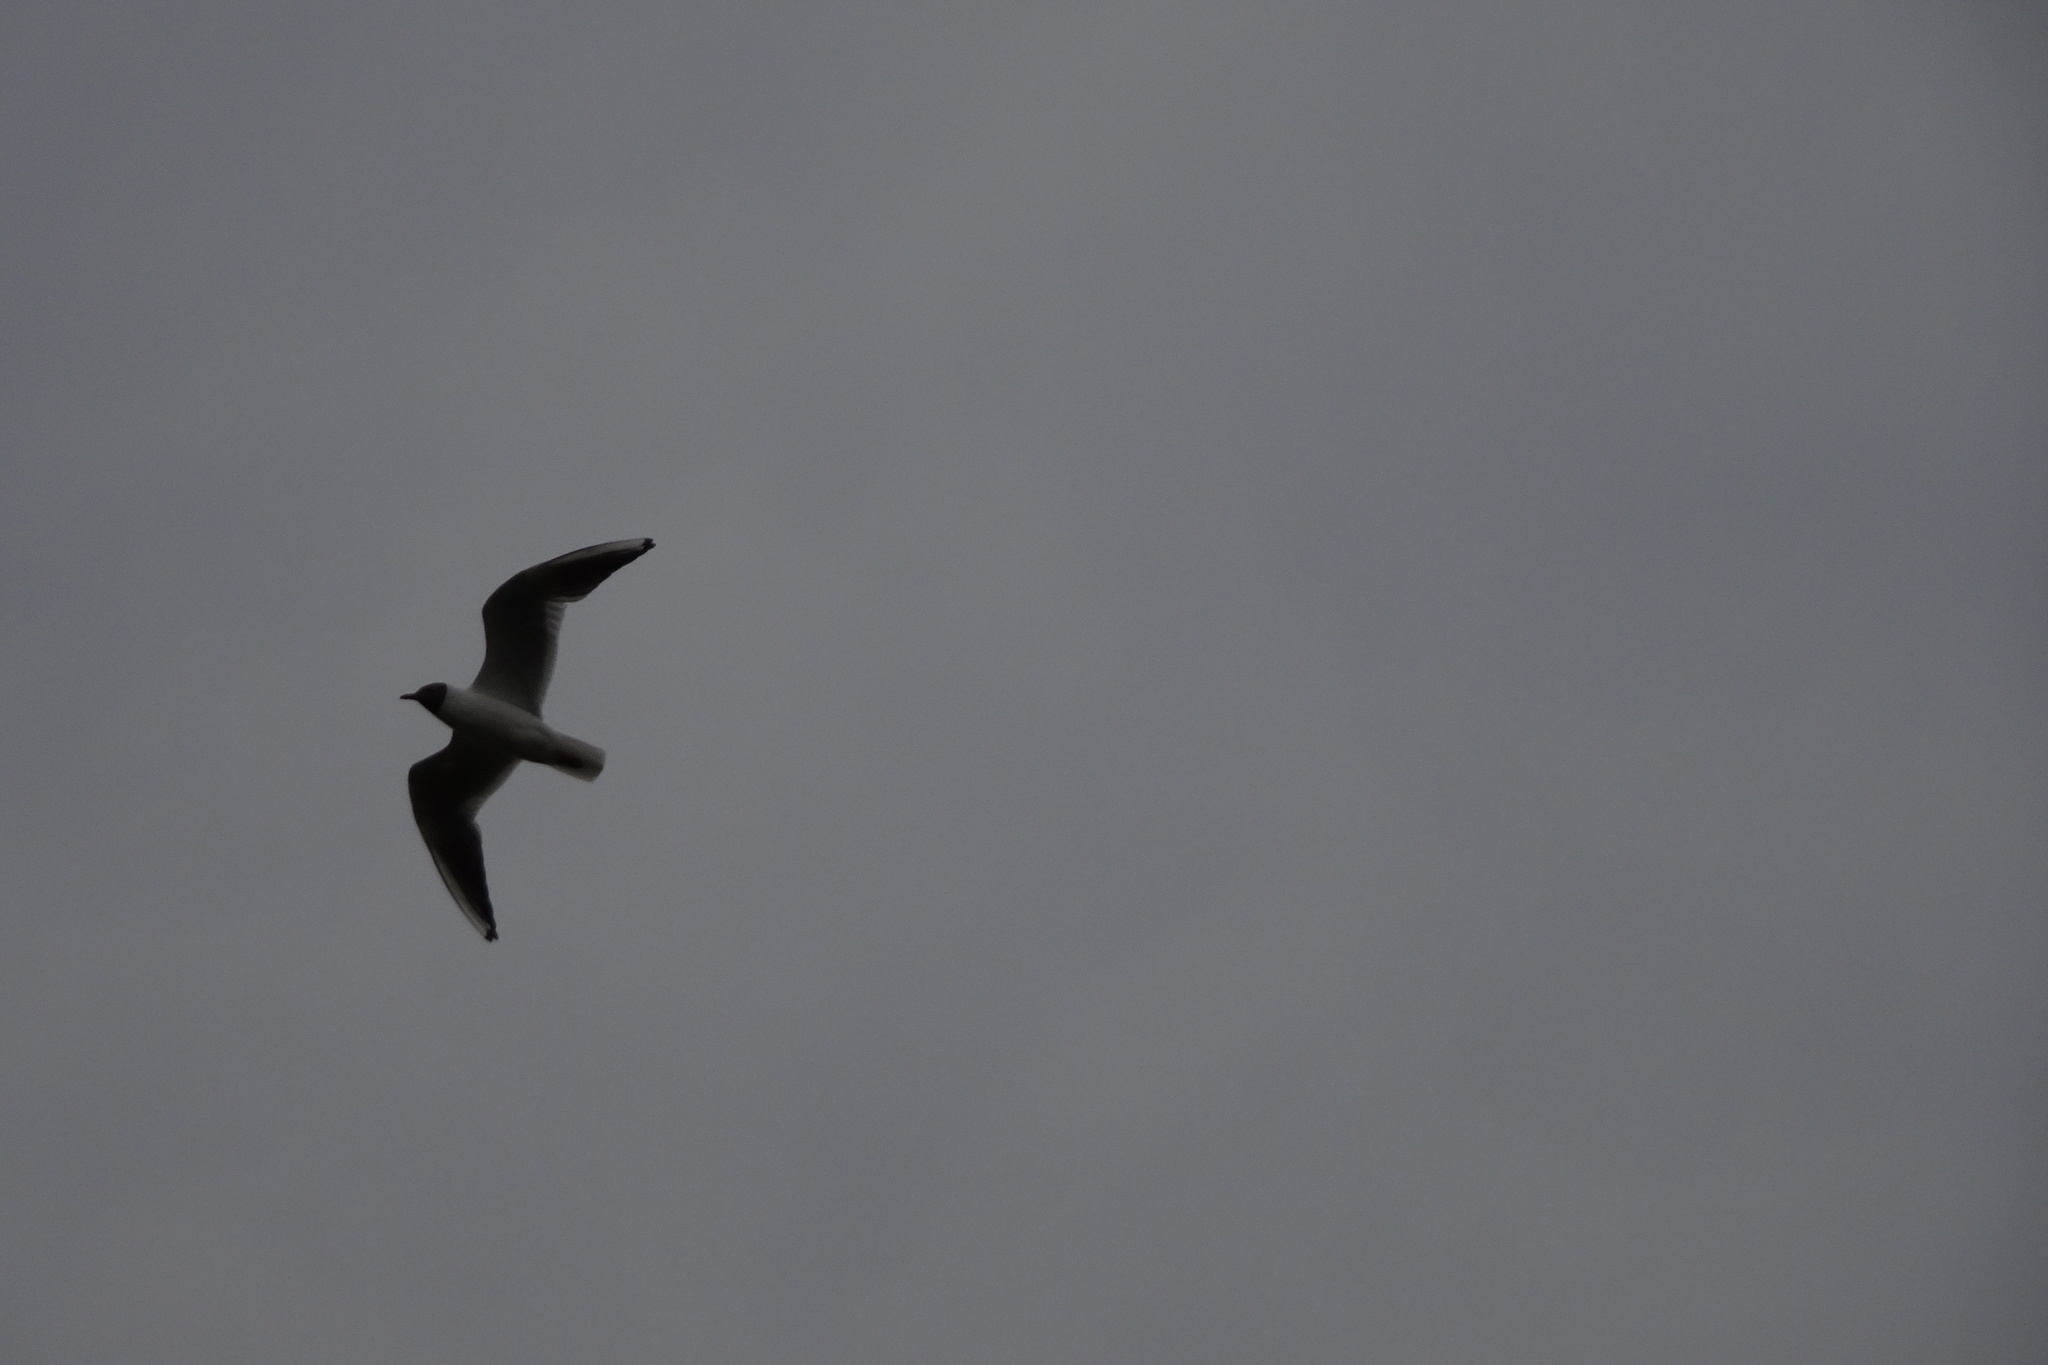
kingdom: Animalia
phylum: Chordata
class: Aves
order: Charadriiformes
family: Laridae
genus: Chroicocephalus
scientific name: Chroicocephalus ridibundus
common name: Black-headed gull
